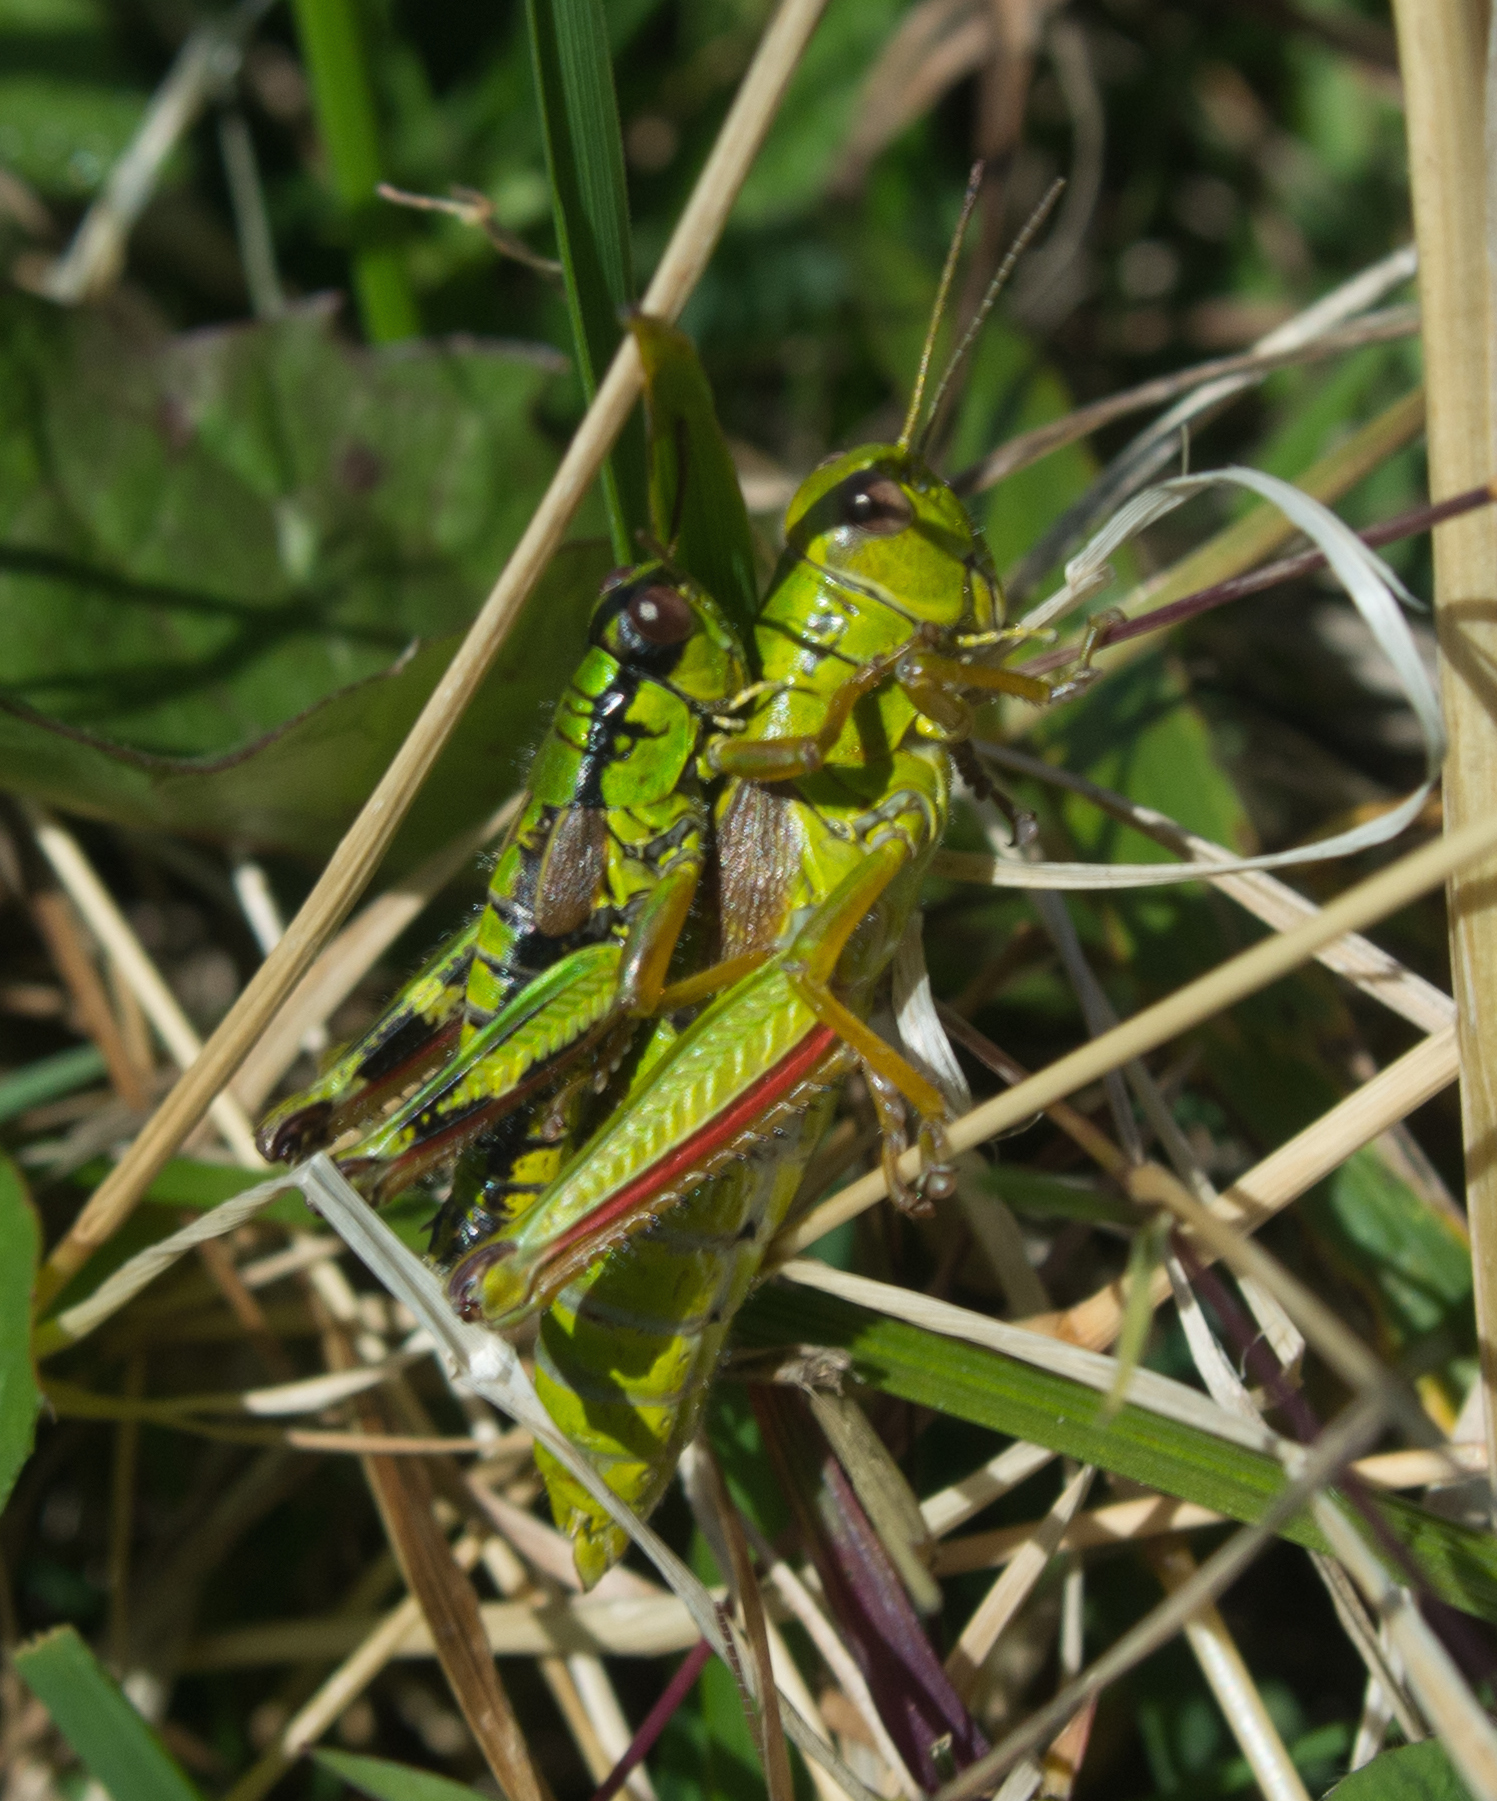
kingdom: Animalia
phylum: Arthropoda
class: Insecta
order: Orthoptera
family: Acrididae
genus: Miramella
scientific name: Miramella alpina
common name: Green mountain grasshopper
